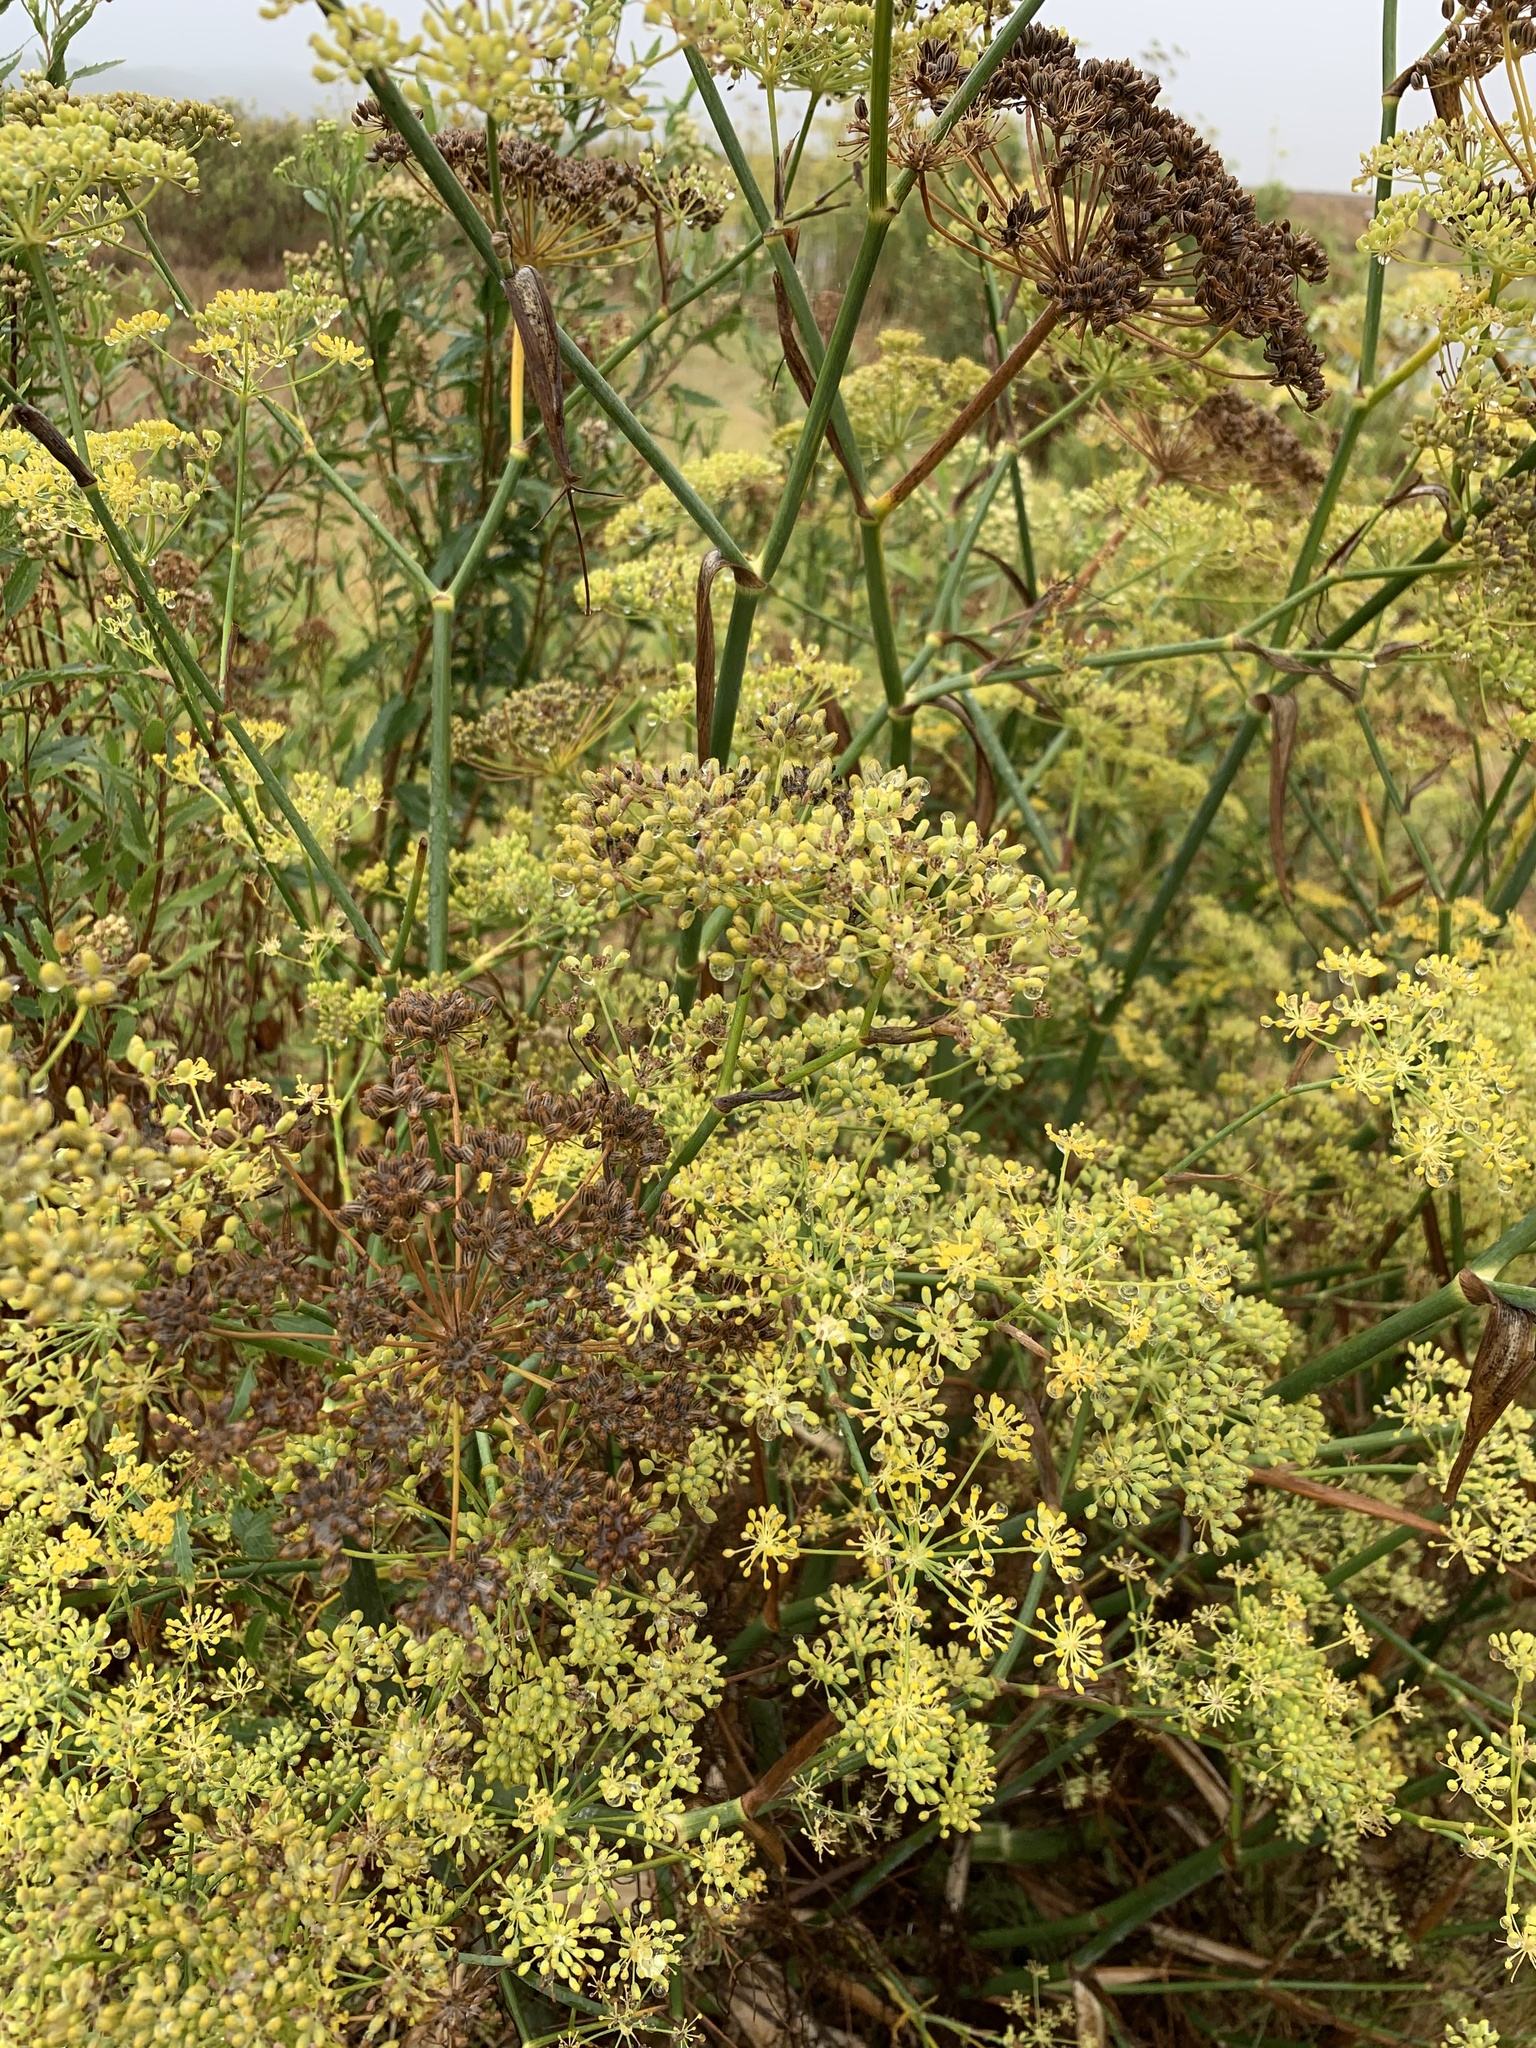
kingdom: Plantae
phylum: Tracheophyta
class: Magnoliopsida
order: Apiales
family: Apiaceae
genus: Foeniculum
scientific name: Foeniculum vulgare
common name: Fennel
